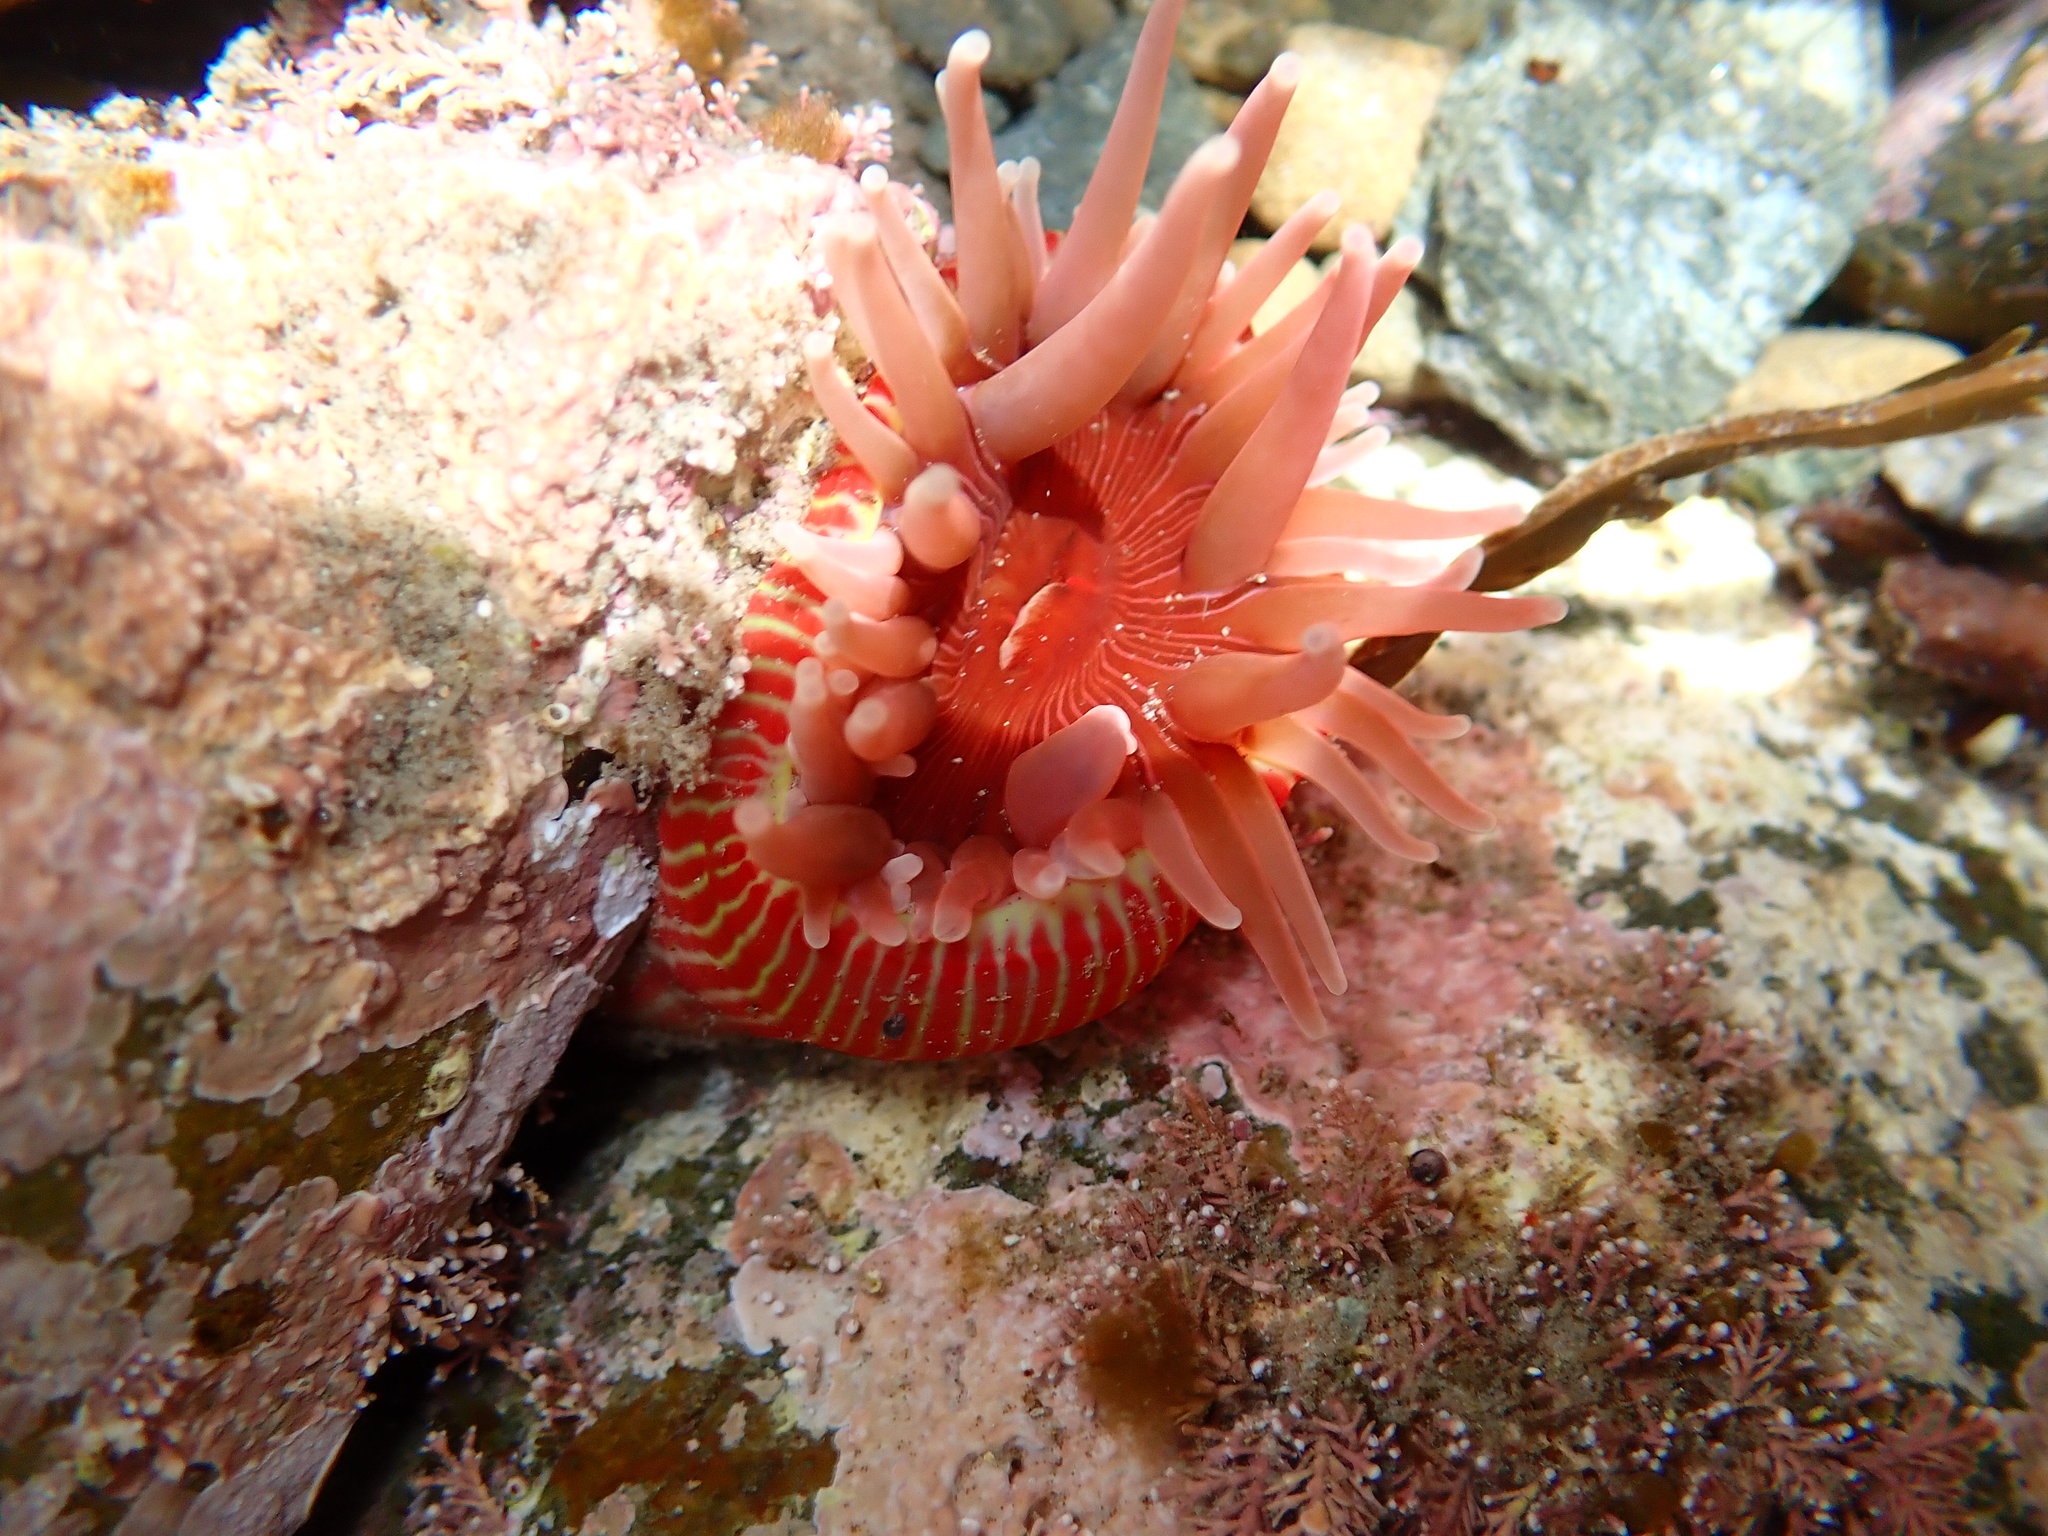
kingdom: Animalia
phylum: Cnidaria
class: Anthozoa
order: Actiniaria
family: Actiniidae
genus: Epiactis
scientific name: Epiactis thompsoni
